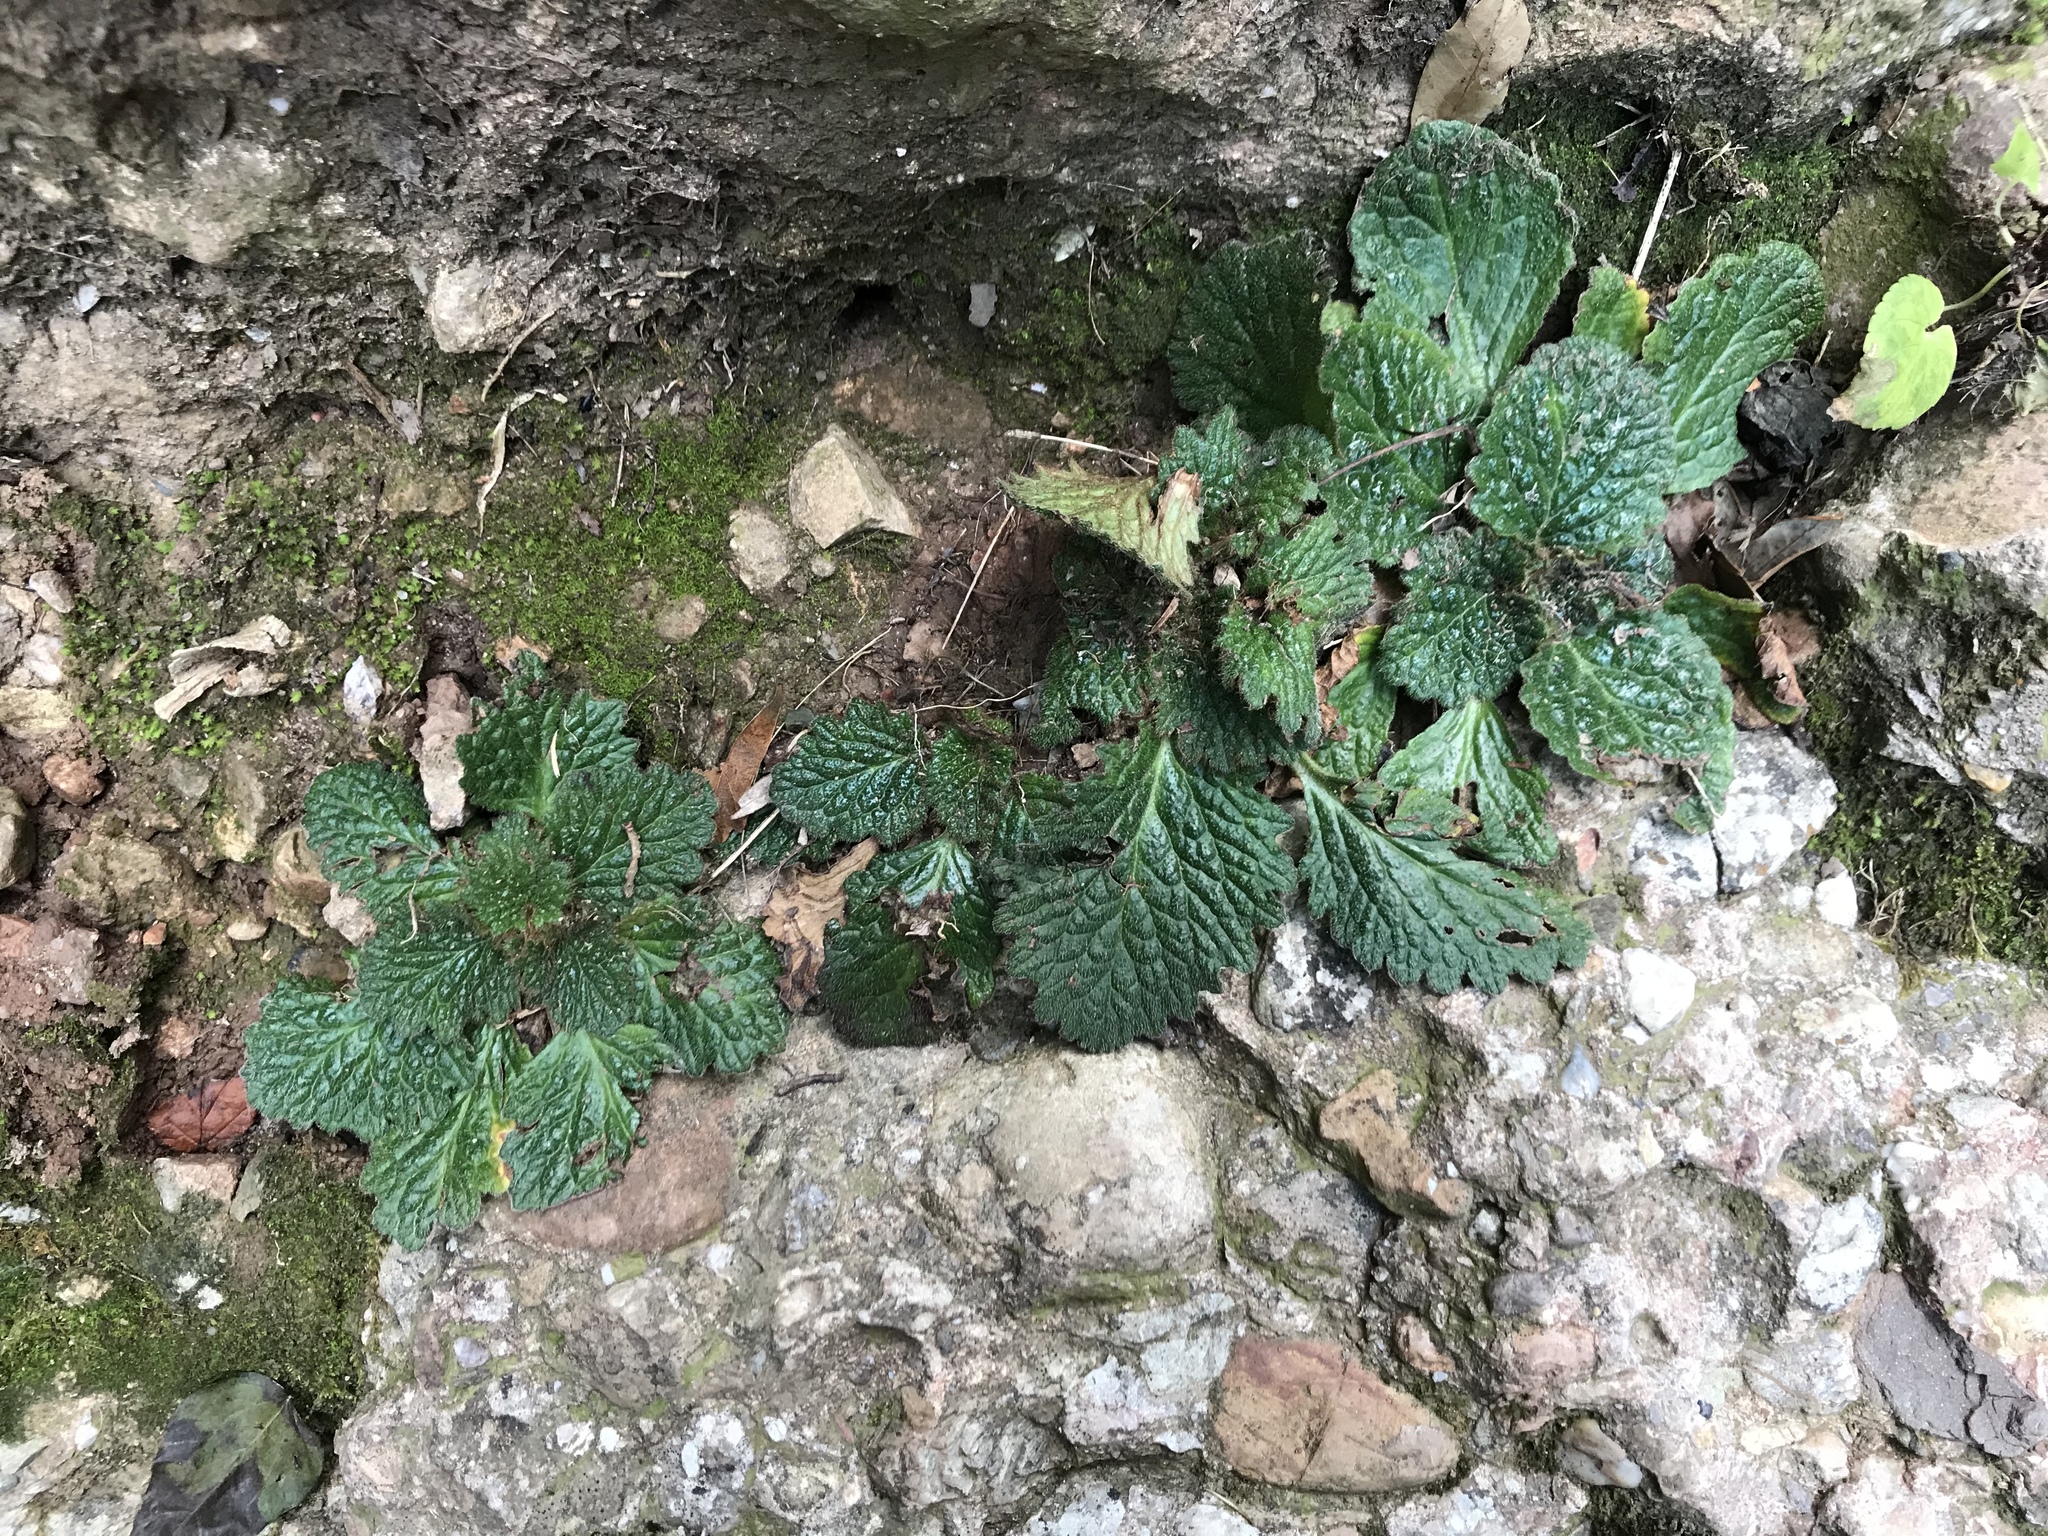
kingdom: Plantae
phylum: Tracheophyta
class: Magnoliopsida
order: Lamiales
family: Gesneriaceae
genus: Ramonda
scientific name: Ramonda myconi
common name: Pyrenean-violet
